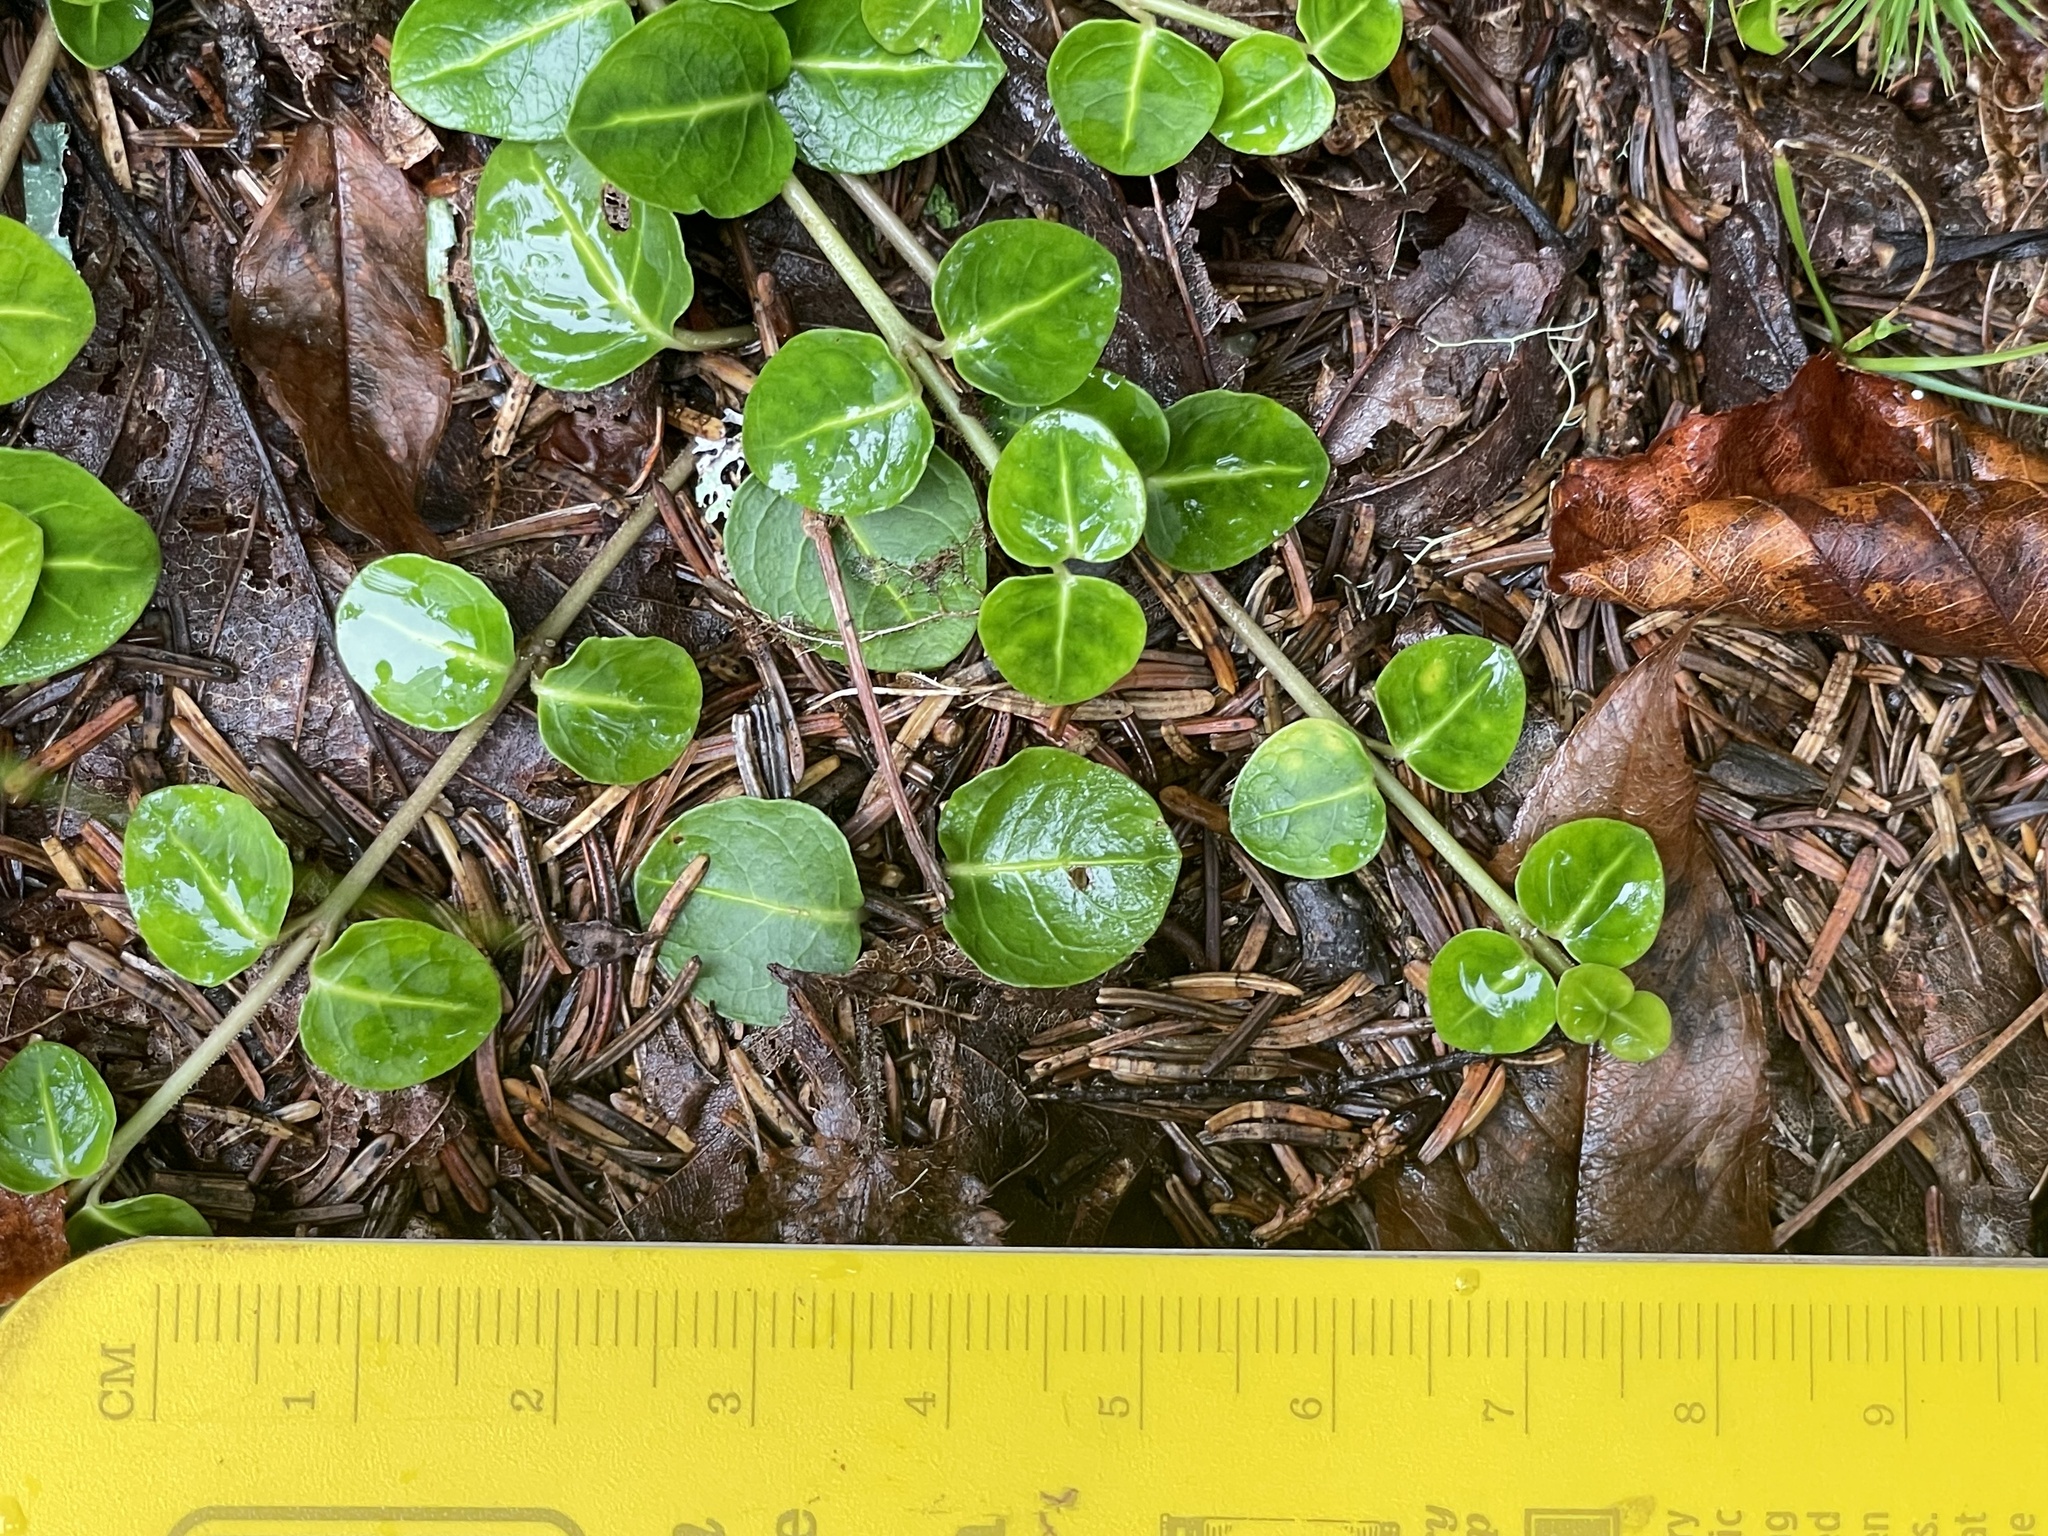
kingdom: Plantae
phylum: Tracheophyta
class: Magnoliopsida
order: Gentianales
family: Rubiaceae
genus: Mitchella
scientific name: Mitchella repens
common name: Partridge-berry
